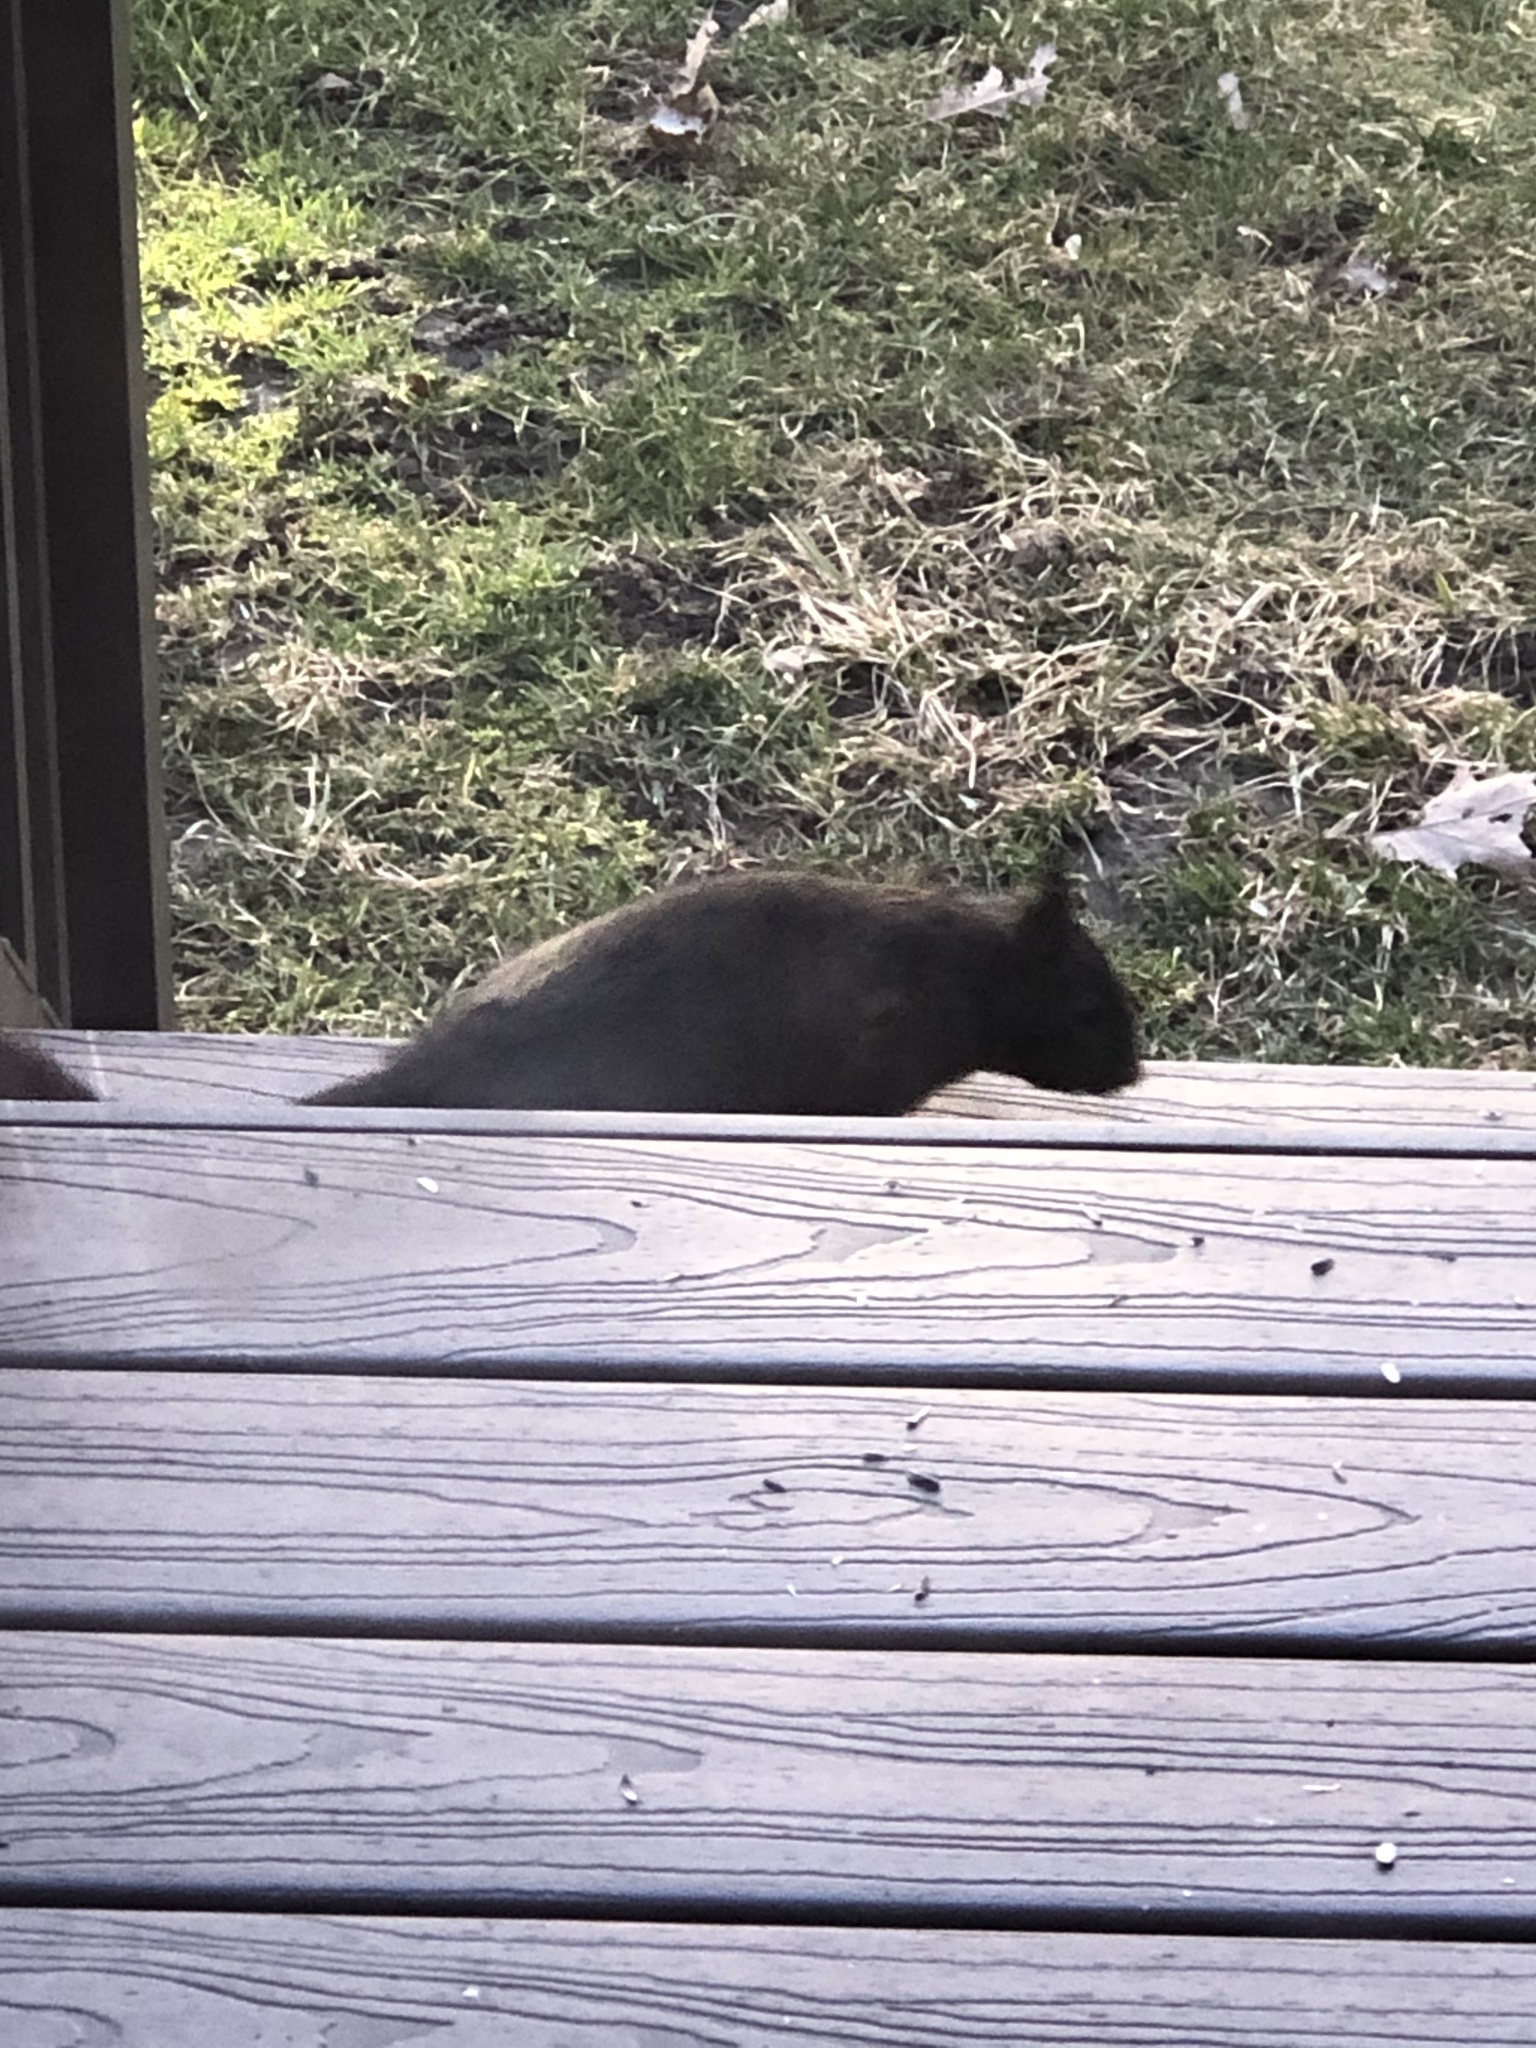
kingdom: Animalia
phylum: Chordata
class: Mammalia
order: Rodentia
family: Sciuridae
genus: Sciurus
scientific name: Sciurus carolinensis
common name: Eastern gray squirrel
